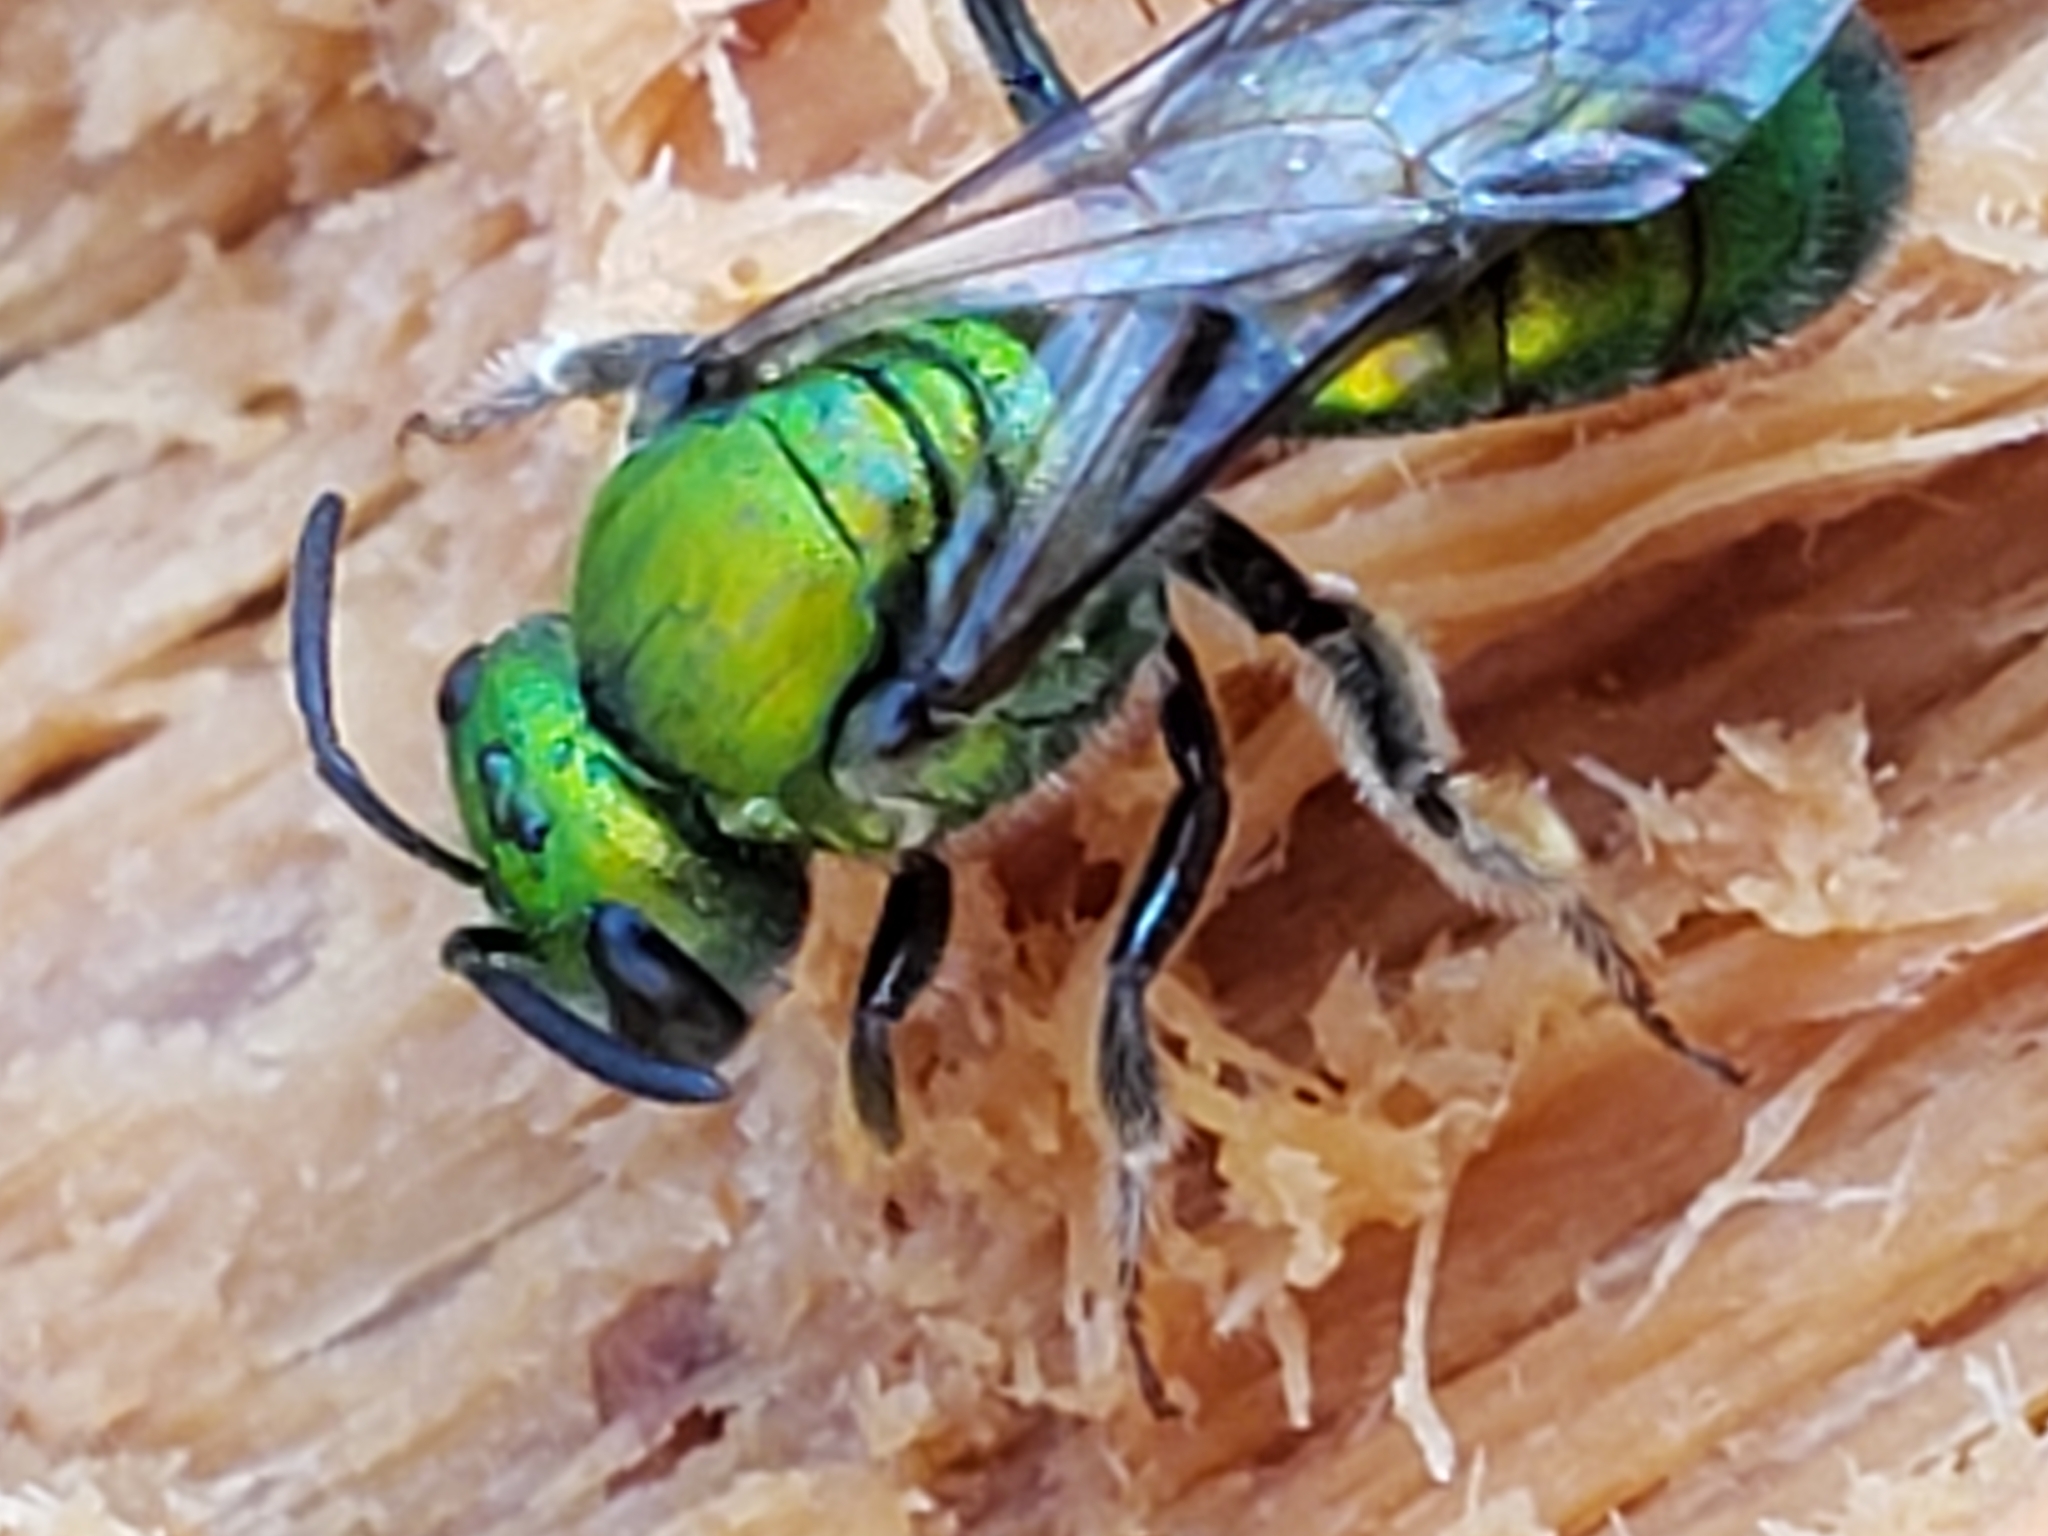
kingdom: Animalia
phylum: Arthropoda
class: Insecta
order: Hymenoptera
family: Halictidae
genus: Augochlora
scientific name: Augochlora pura
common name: Pure green sweat bee
